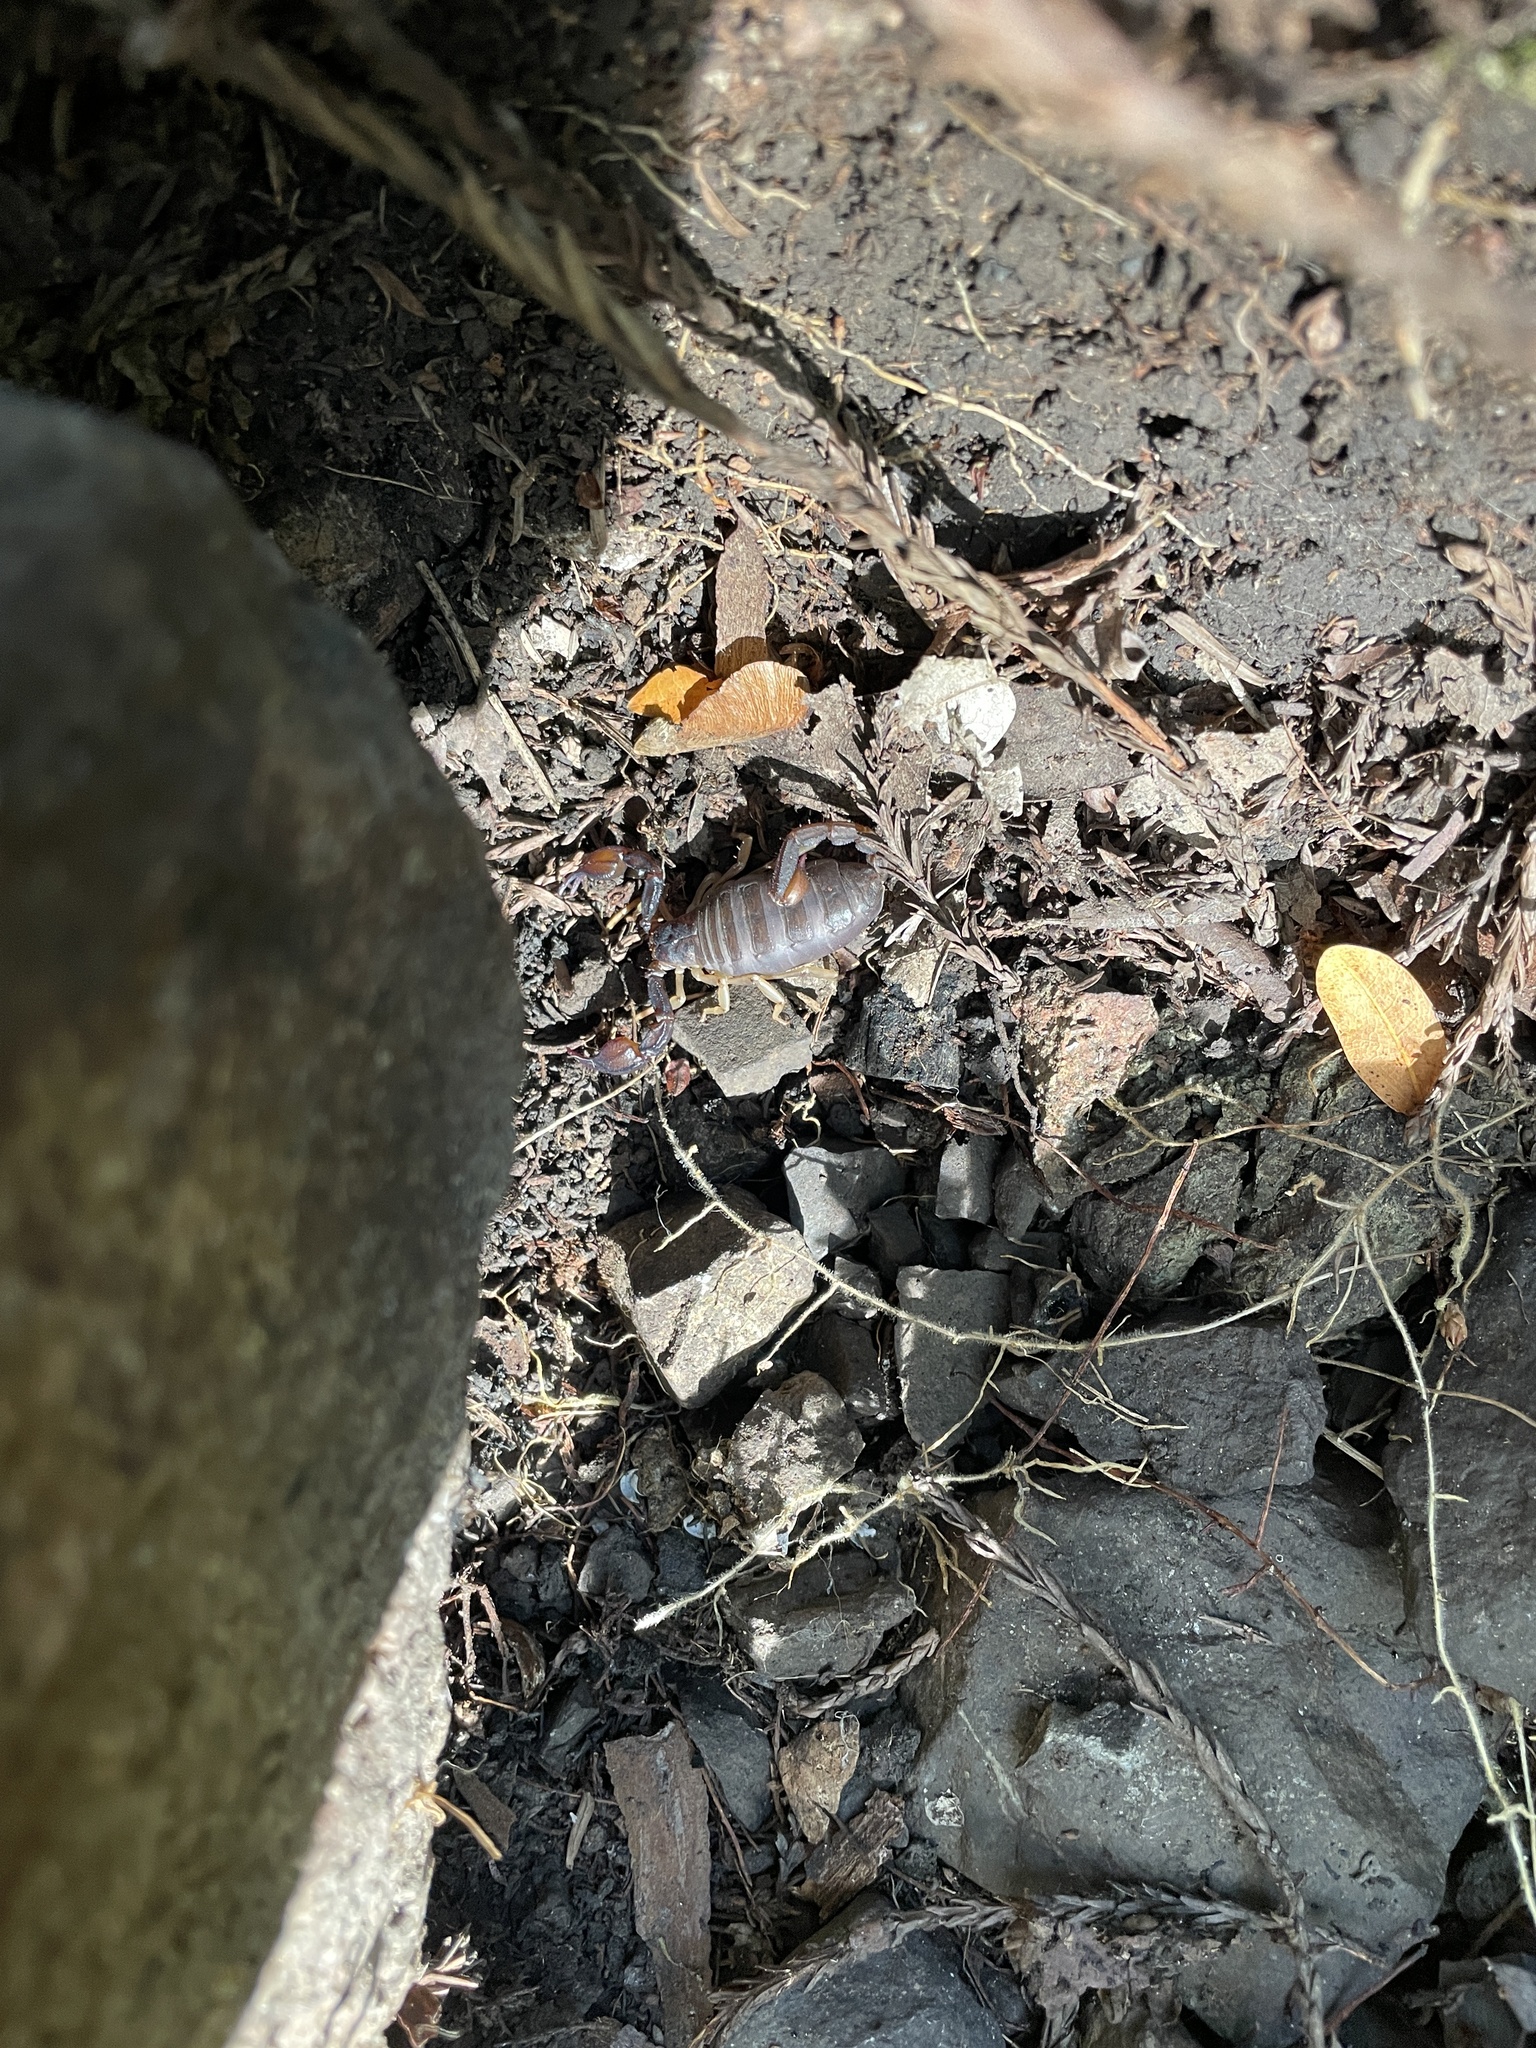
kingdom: Animalia
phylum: Arthropoda
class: Arachnida
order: Scorpiones
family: Chactidae
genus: Uroctonus
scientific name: Uroctonus mordax
